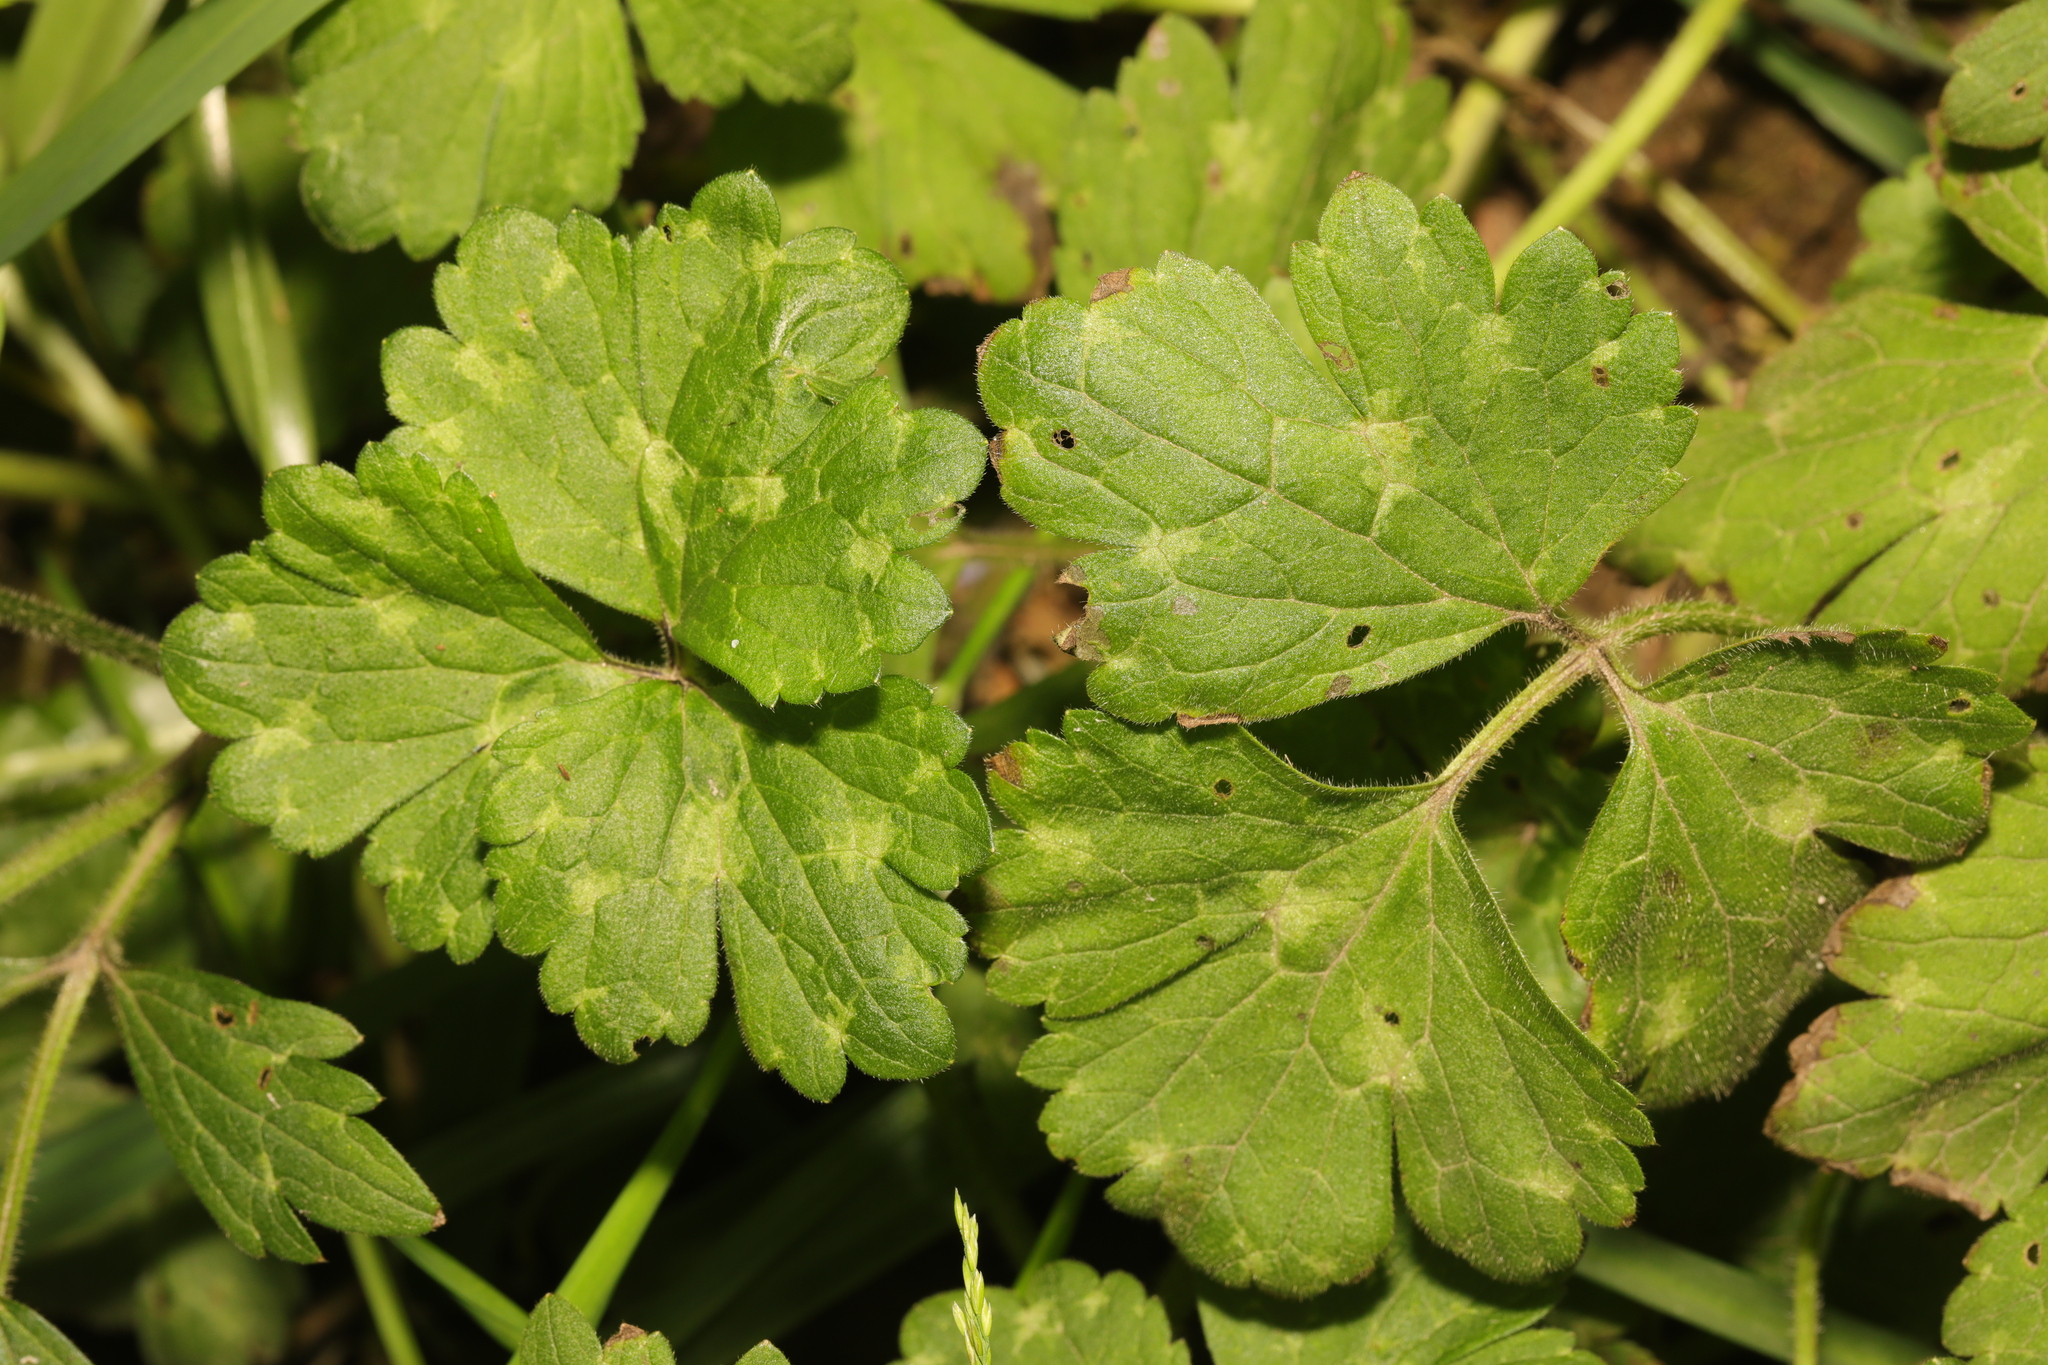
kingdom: Plantae
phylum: Tracheophyta
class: Magnoliopsida
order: Ranunculales
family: Ranunculaceae
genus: Ranunculus
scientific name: Ranunculus repens
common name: Creeping buttercup
